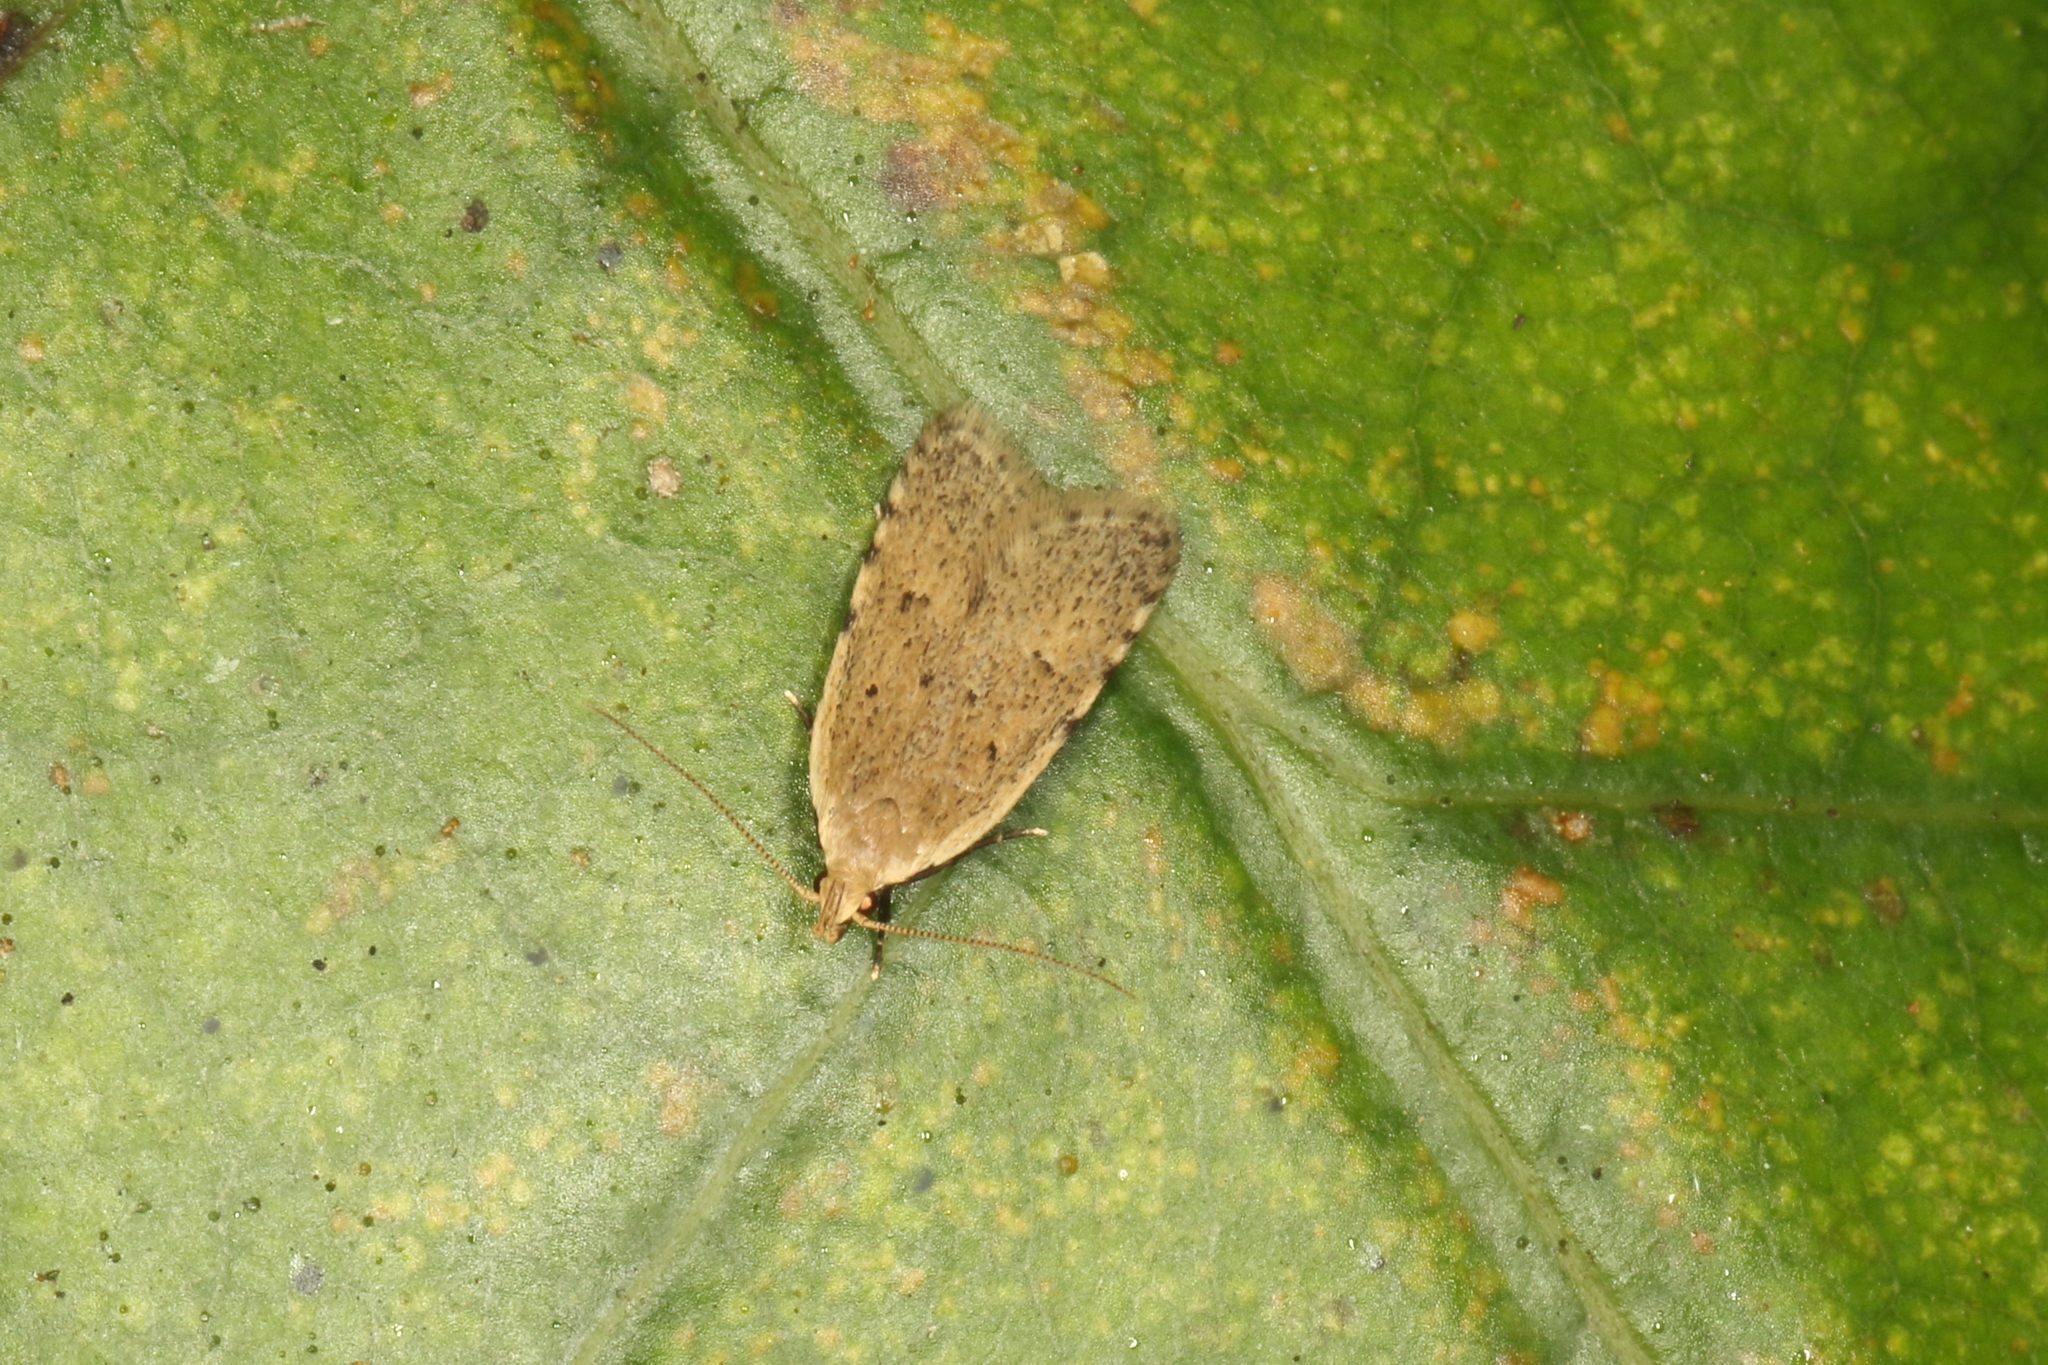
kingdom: Animalia
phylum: Arthropoda
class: Insecta
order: Lepidoptera
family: Oecophoridae
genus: Gymnobathra
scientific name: Gymnobathra calliploca
